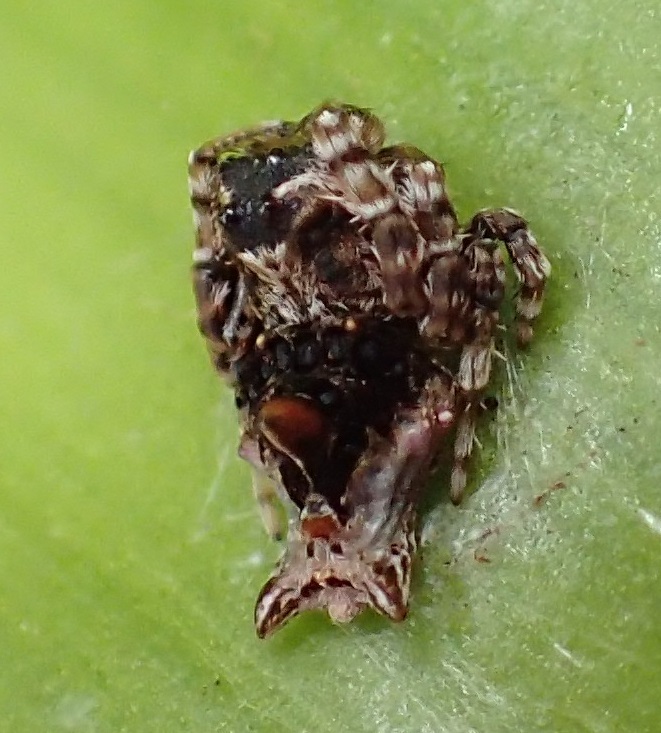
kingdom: Animalia
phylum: Arthropoda
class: Arachnida
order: Araneae
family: Arkyidae
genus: Arkys
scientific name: Arkys alticephala
